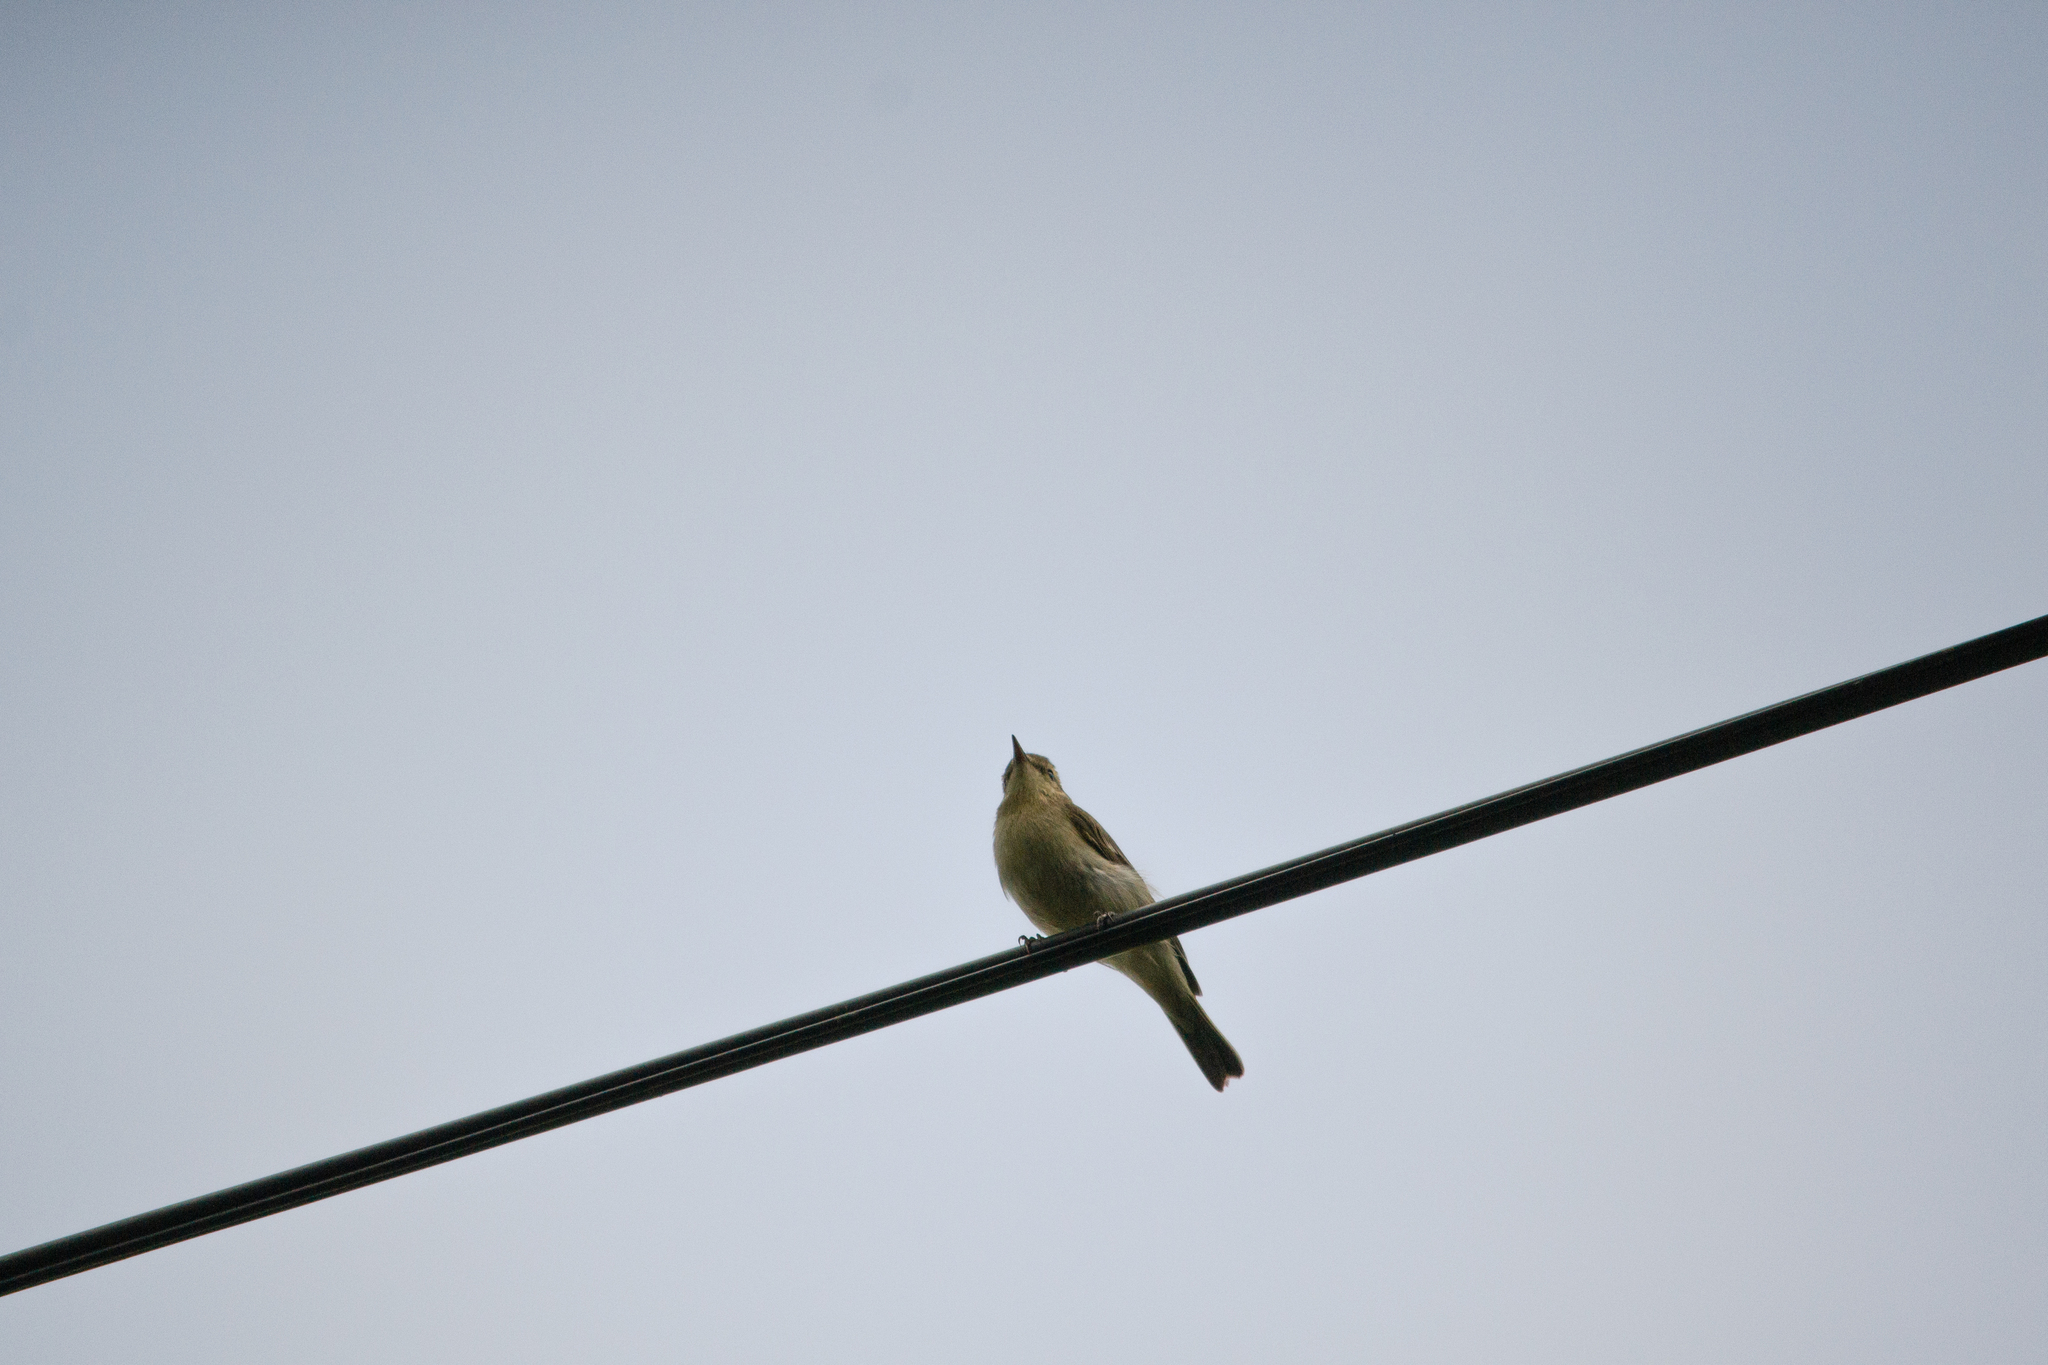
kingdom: Animalia
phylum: Chordata
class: Aves
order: Passeriformes
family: Phylloscopidae
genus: Phylloscopus
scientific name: Phylloscopus trochiloides
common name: Greenish warbler
